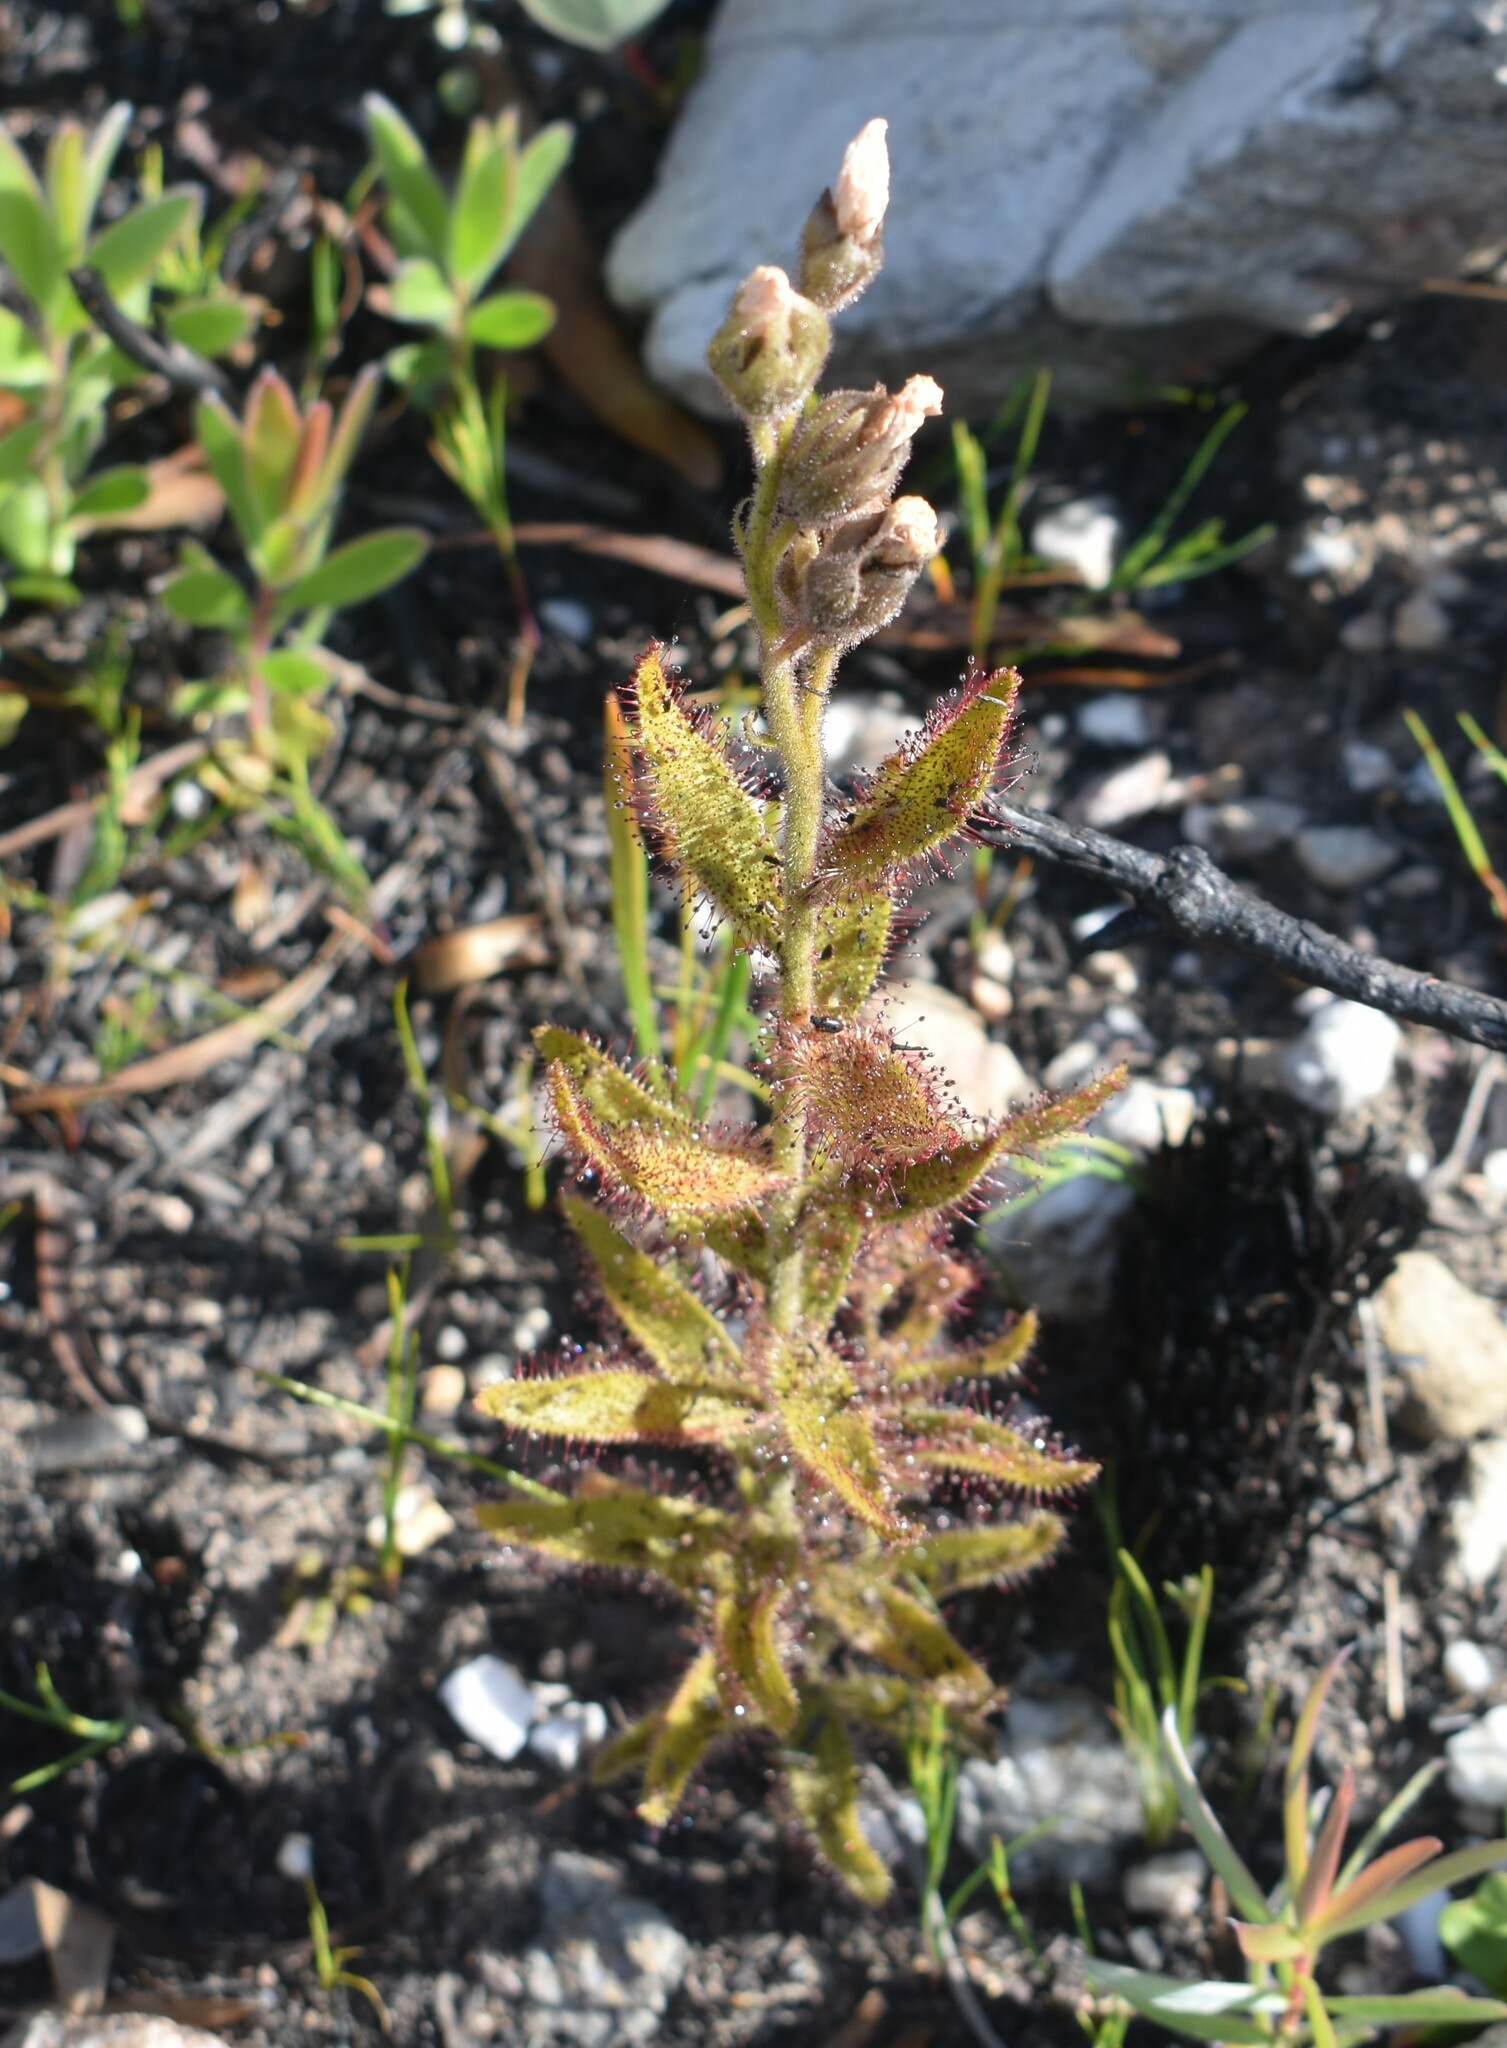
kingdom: Plantae
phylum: Tracheophyta
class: Magnoliopsida
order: Caryophyllales
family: Droseraceae
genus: Drosera
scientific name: Drosera cistiflora
